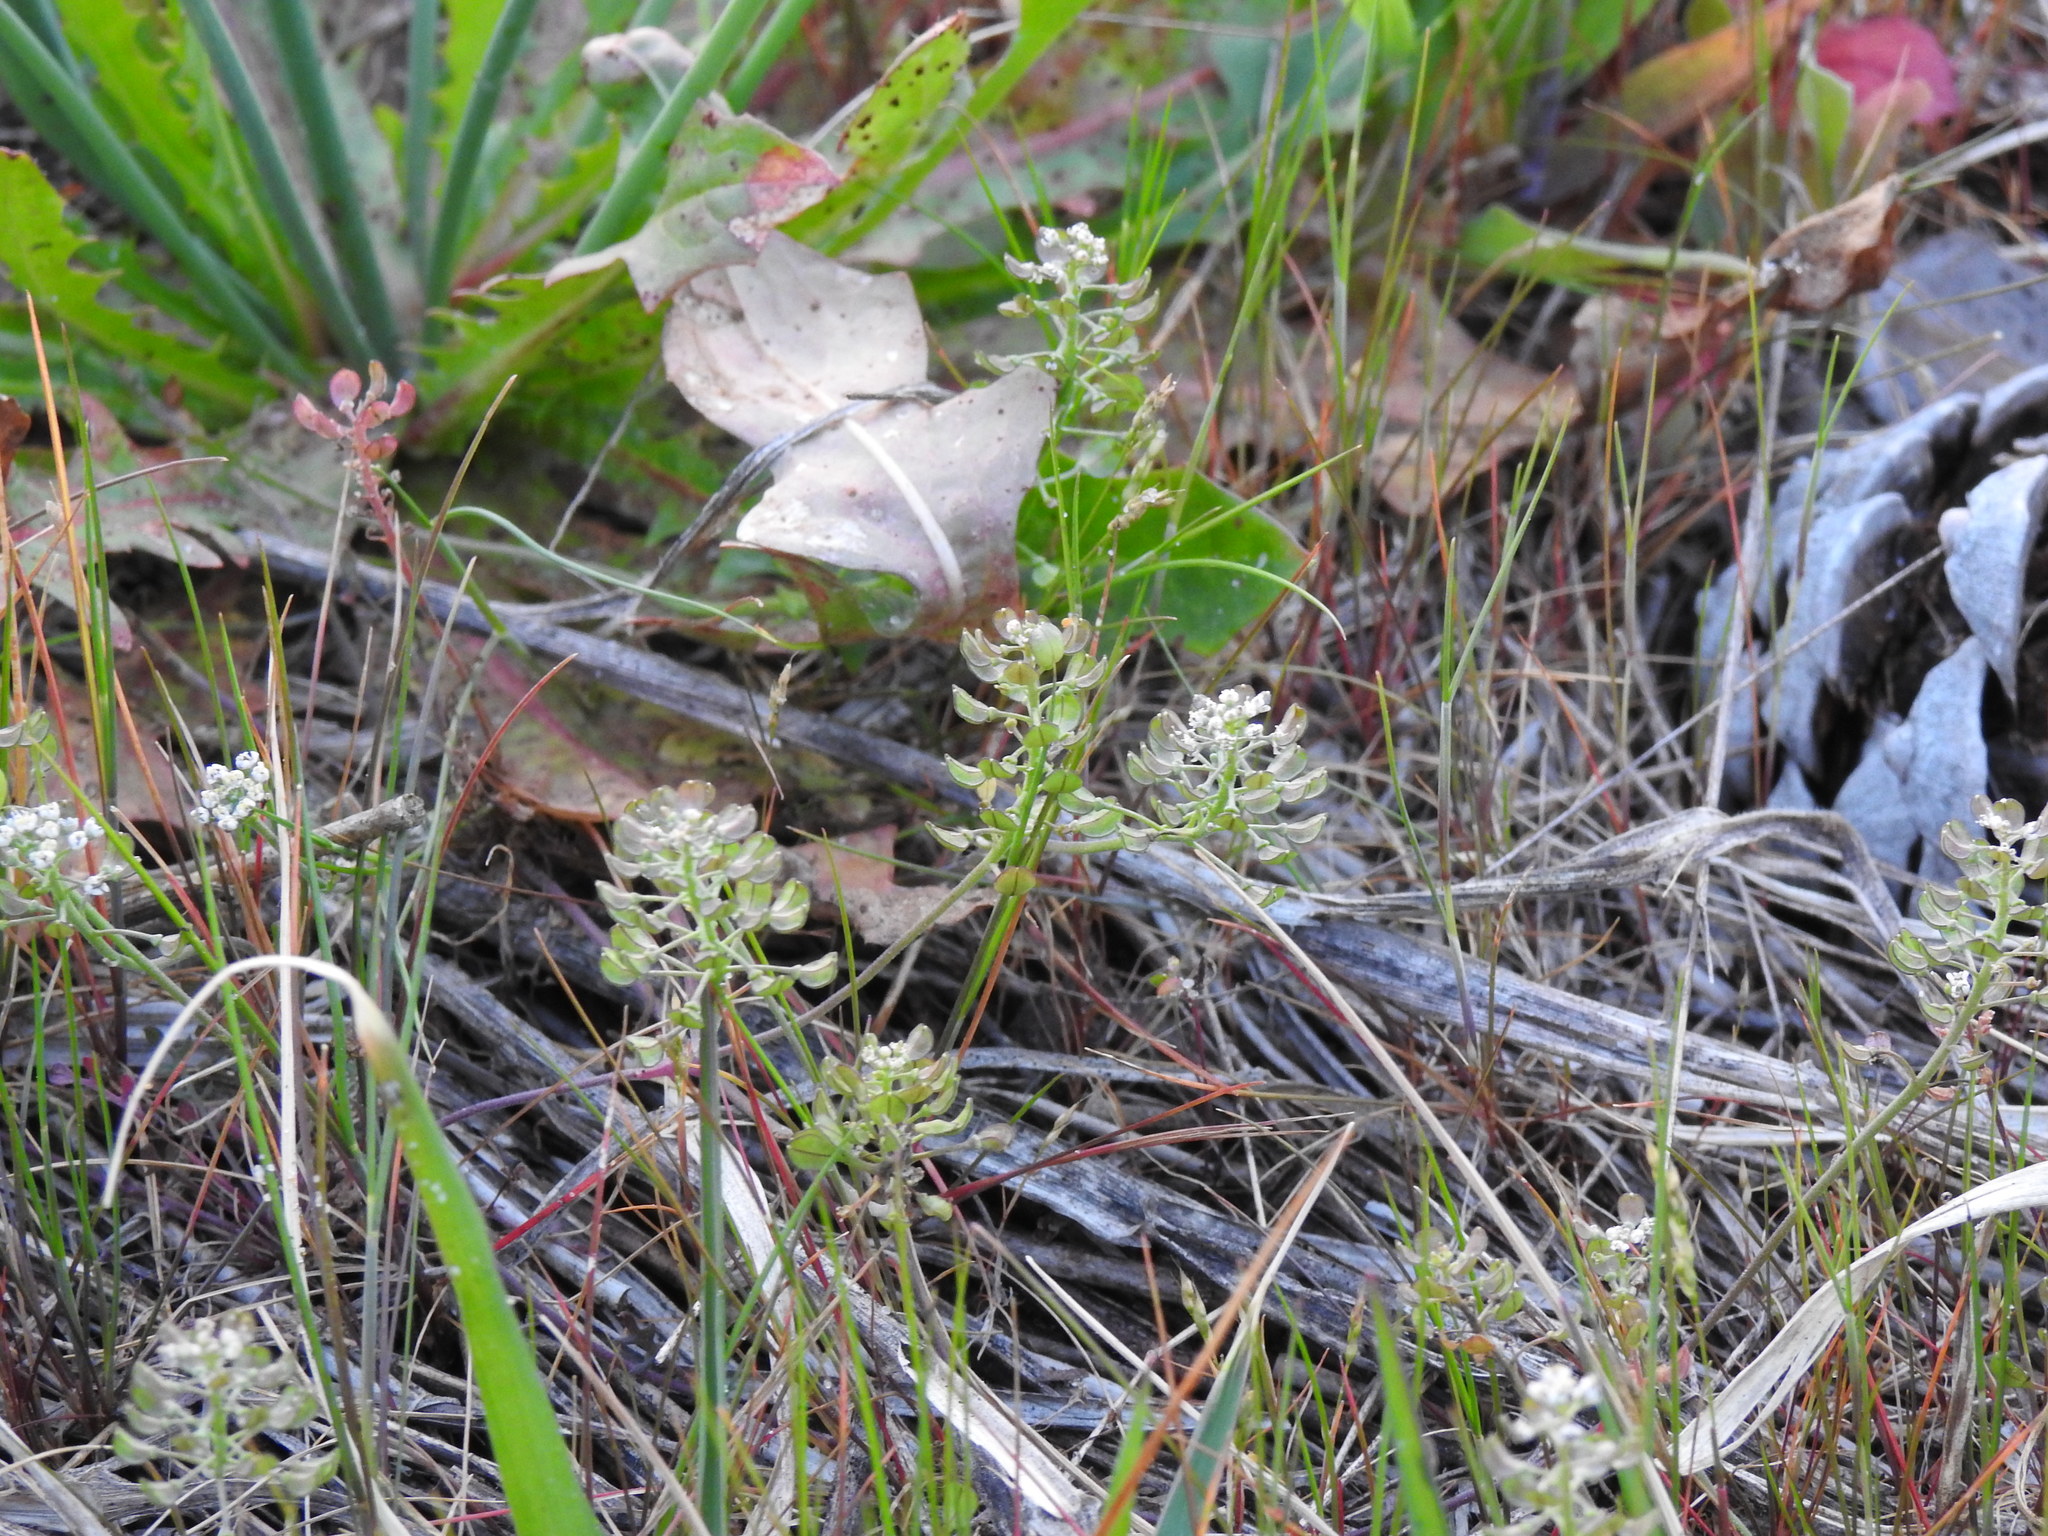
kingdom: Plantae
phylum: Tracheophyta
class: Magnoliopsida
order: Brassicales
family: Brassicaceae
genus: Teesdalia
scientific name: Teesdalia nudicaulis
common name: Shepherd's cress
